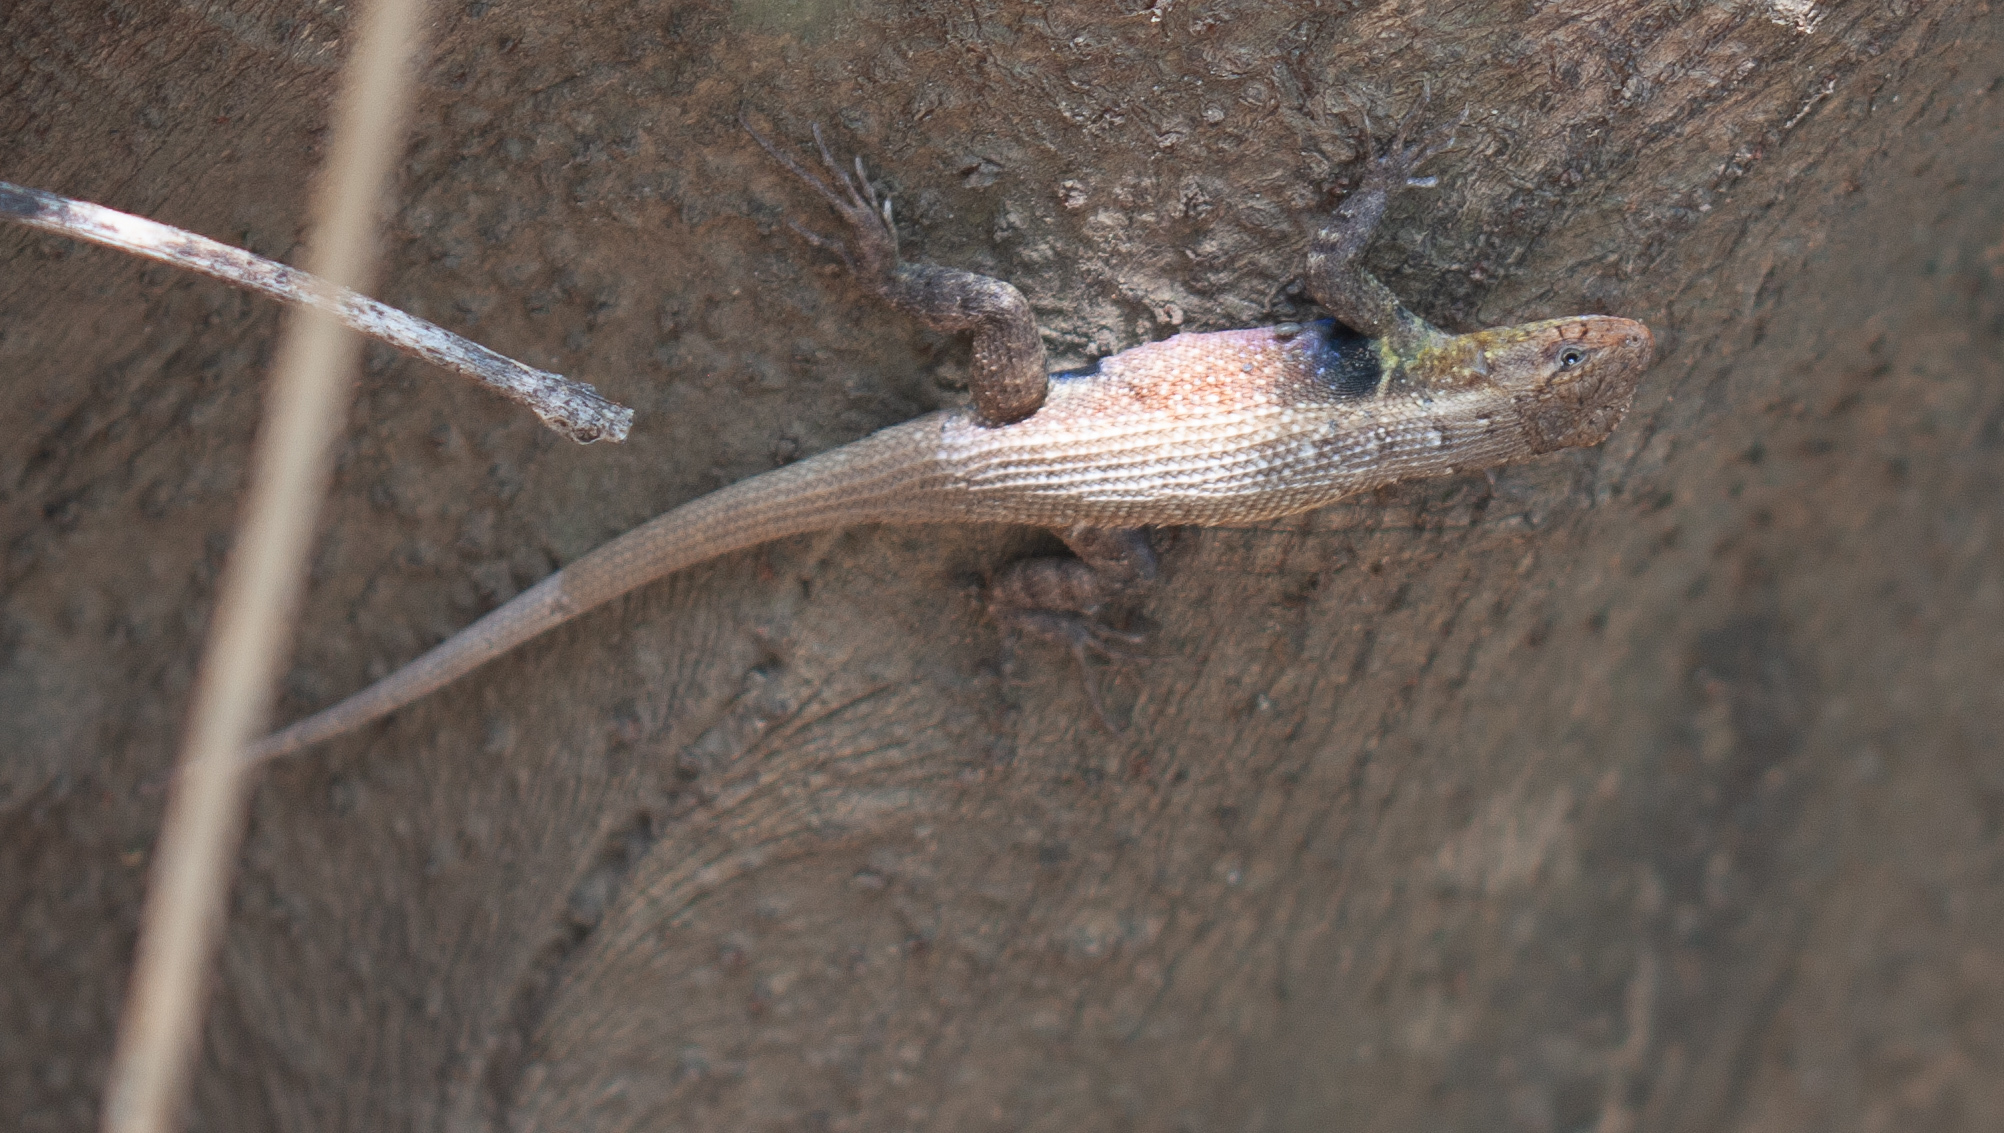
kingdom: Animalia
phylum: Chordata
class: Squamata
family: Phrynosomatidae
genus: Sceloporus
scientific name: Sceloporus variabilis
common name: Rosebelly lizard
